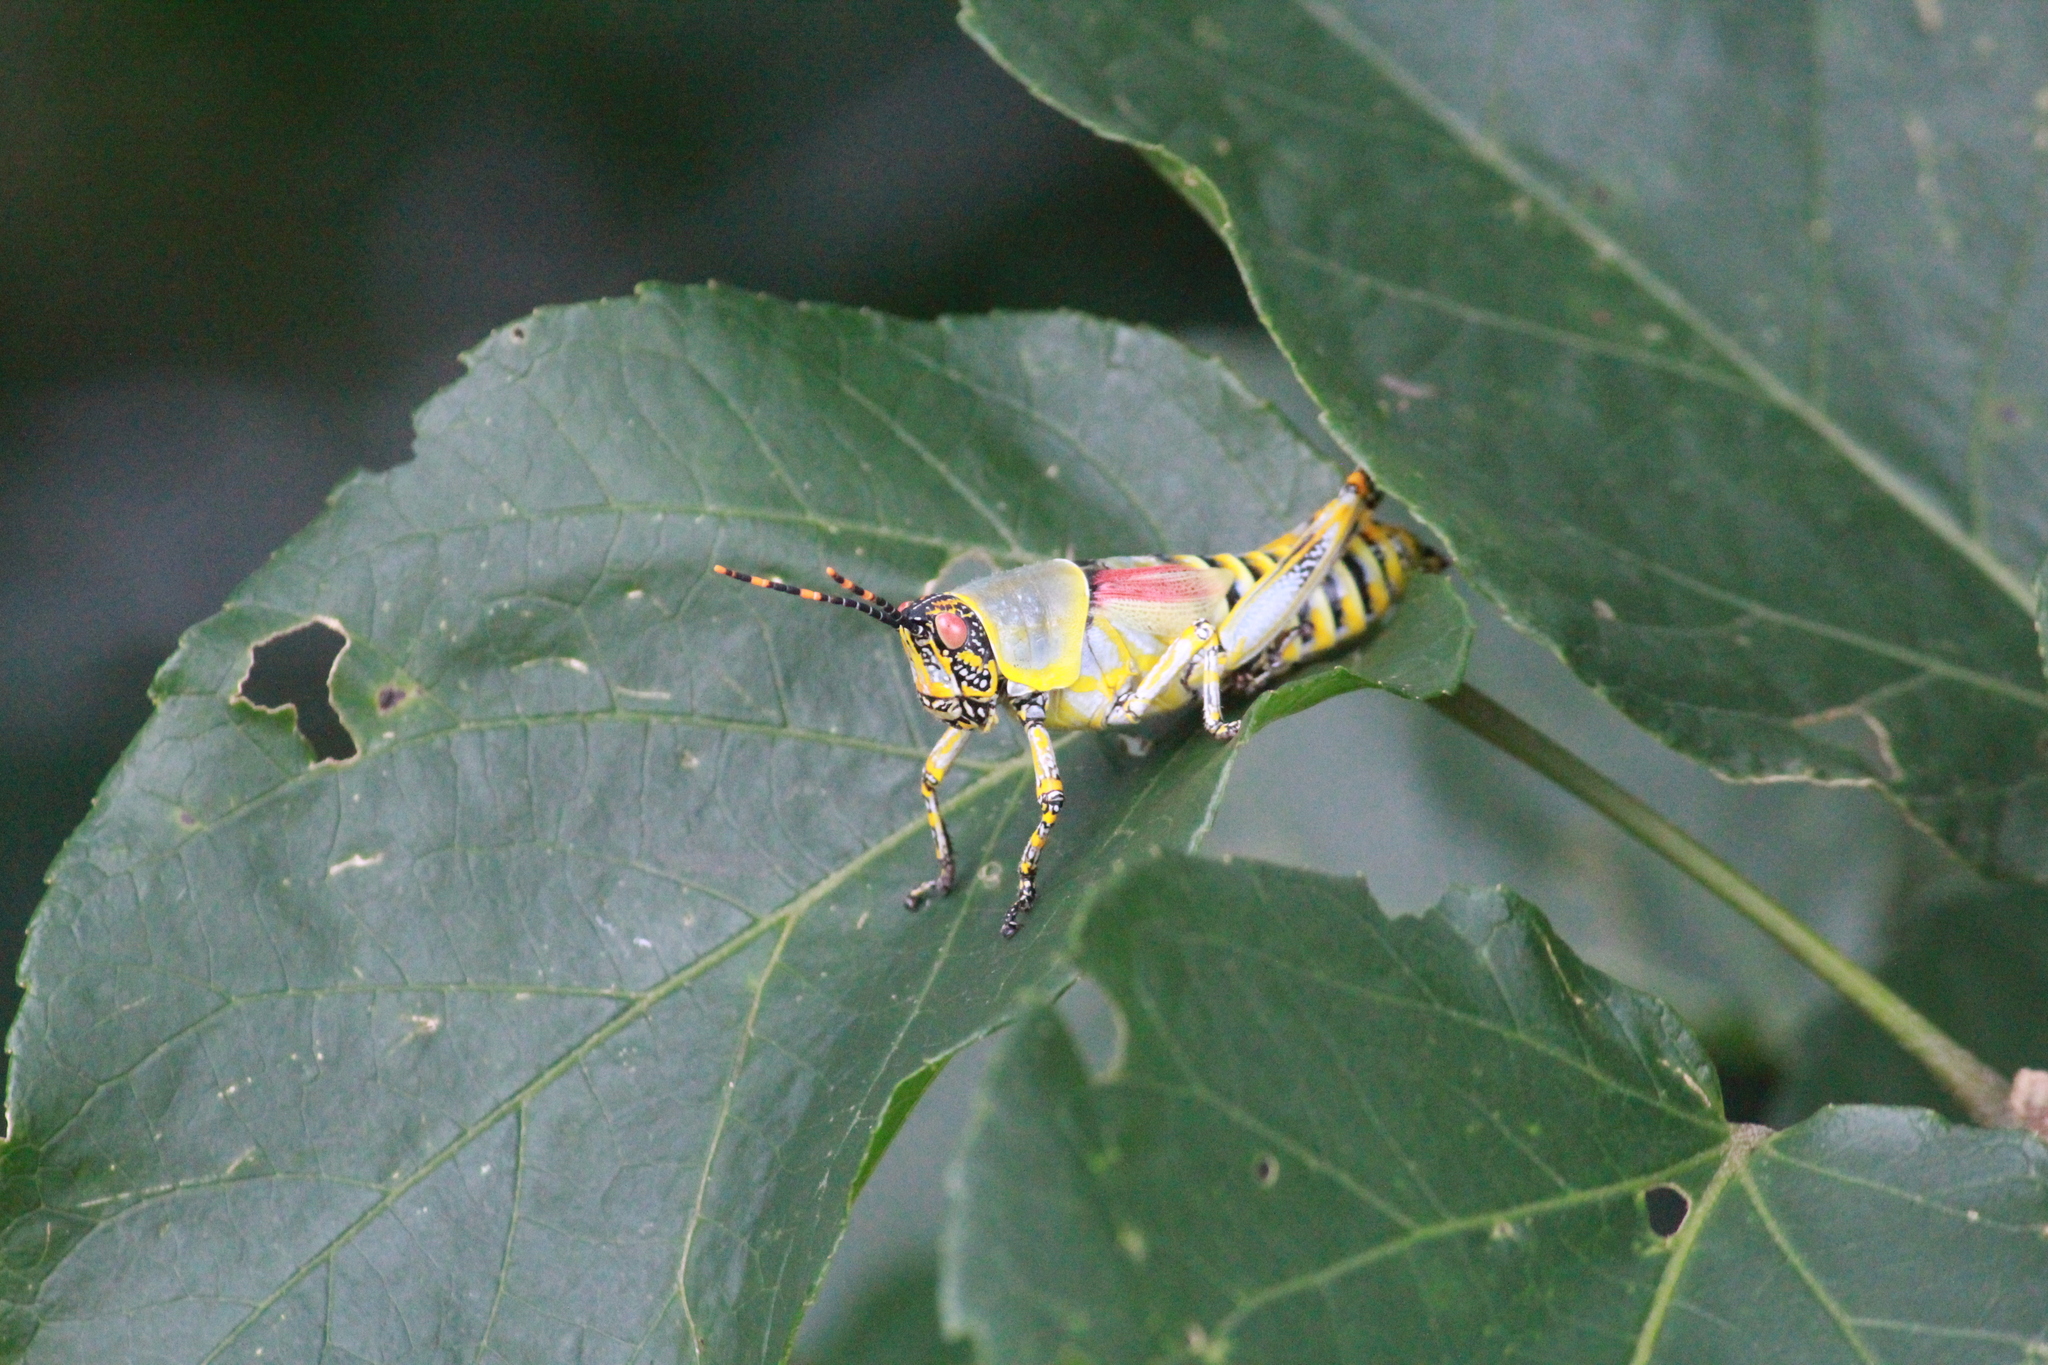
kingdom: Animalia
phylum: Arthropoda
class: Insecta
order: Orthoptera
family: Pyrgomorphidae
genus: Zonocerus
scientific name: Zonocerus elegans
